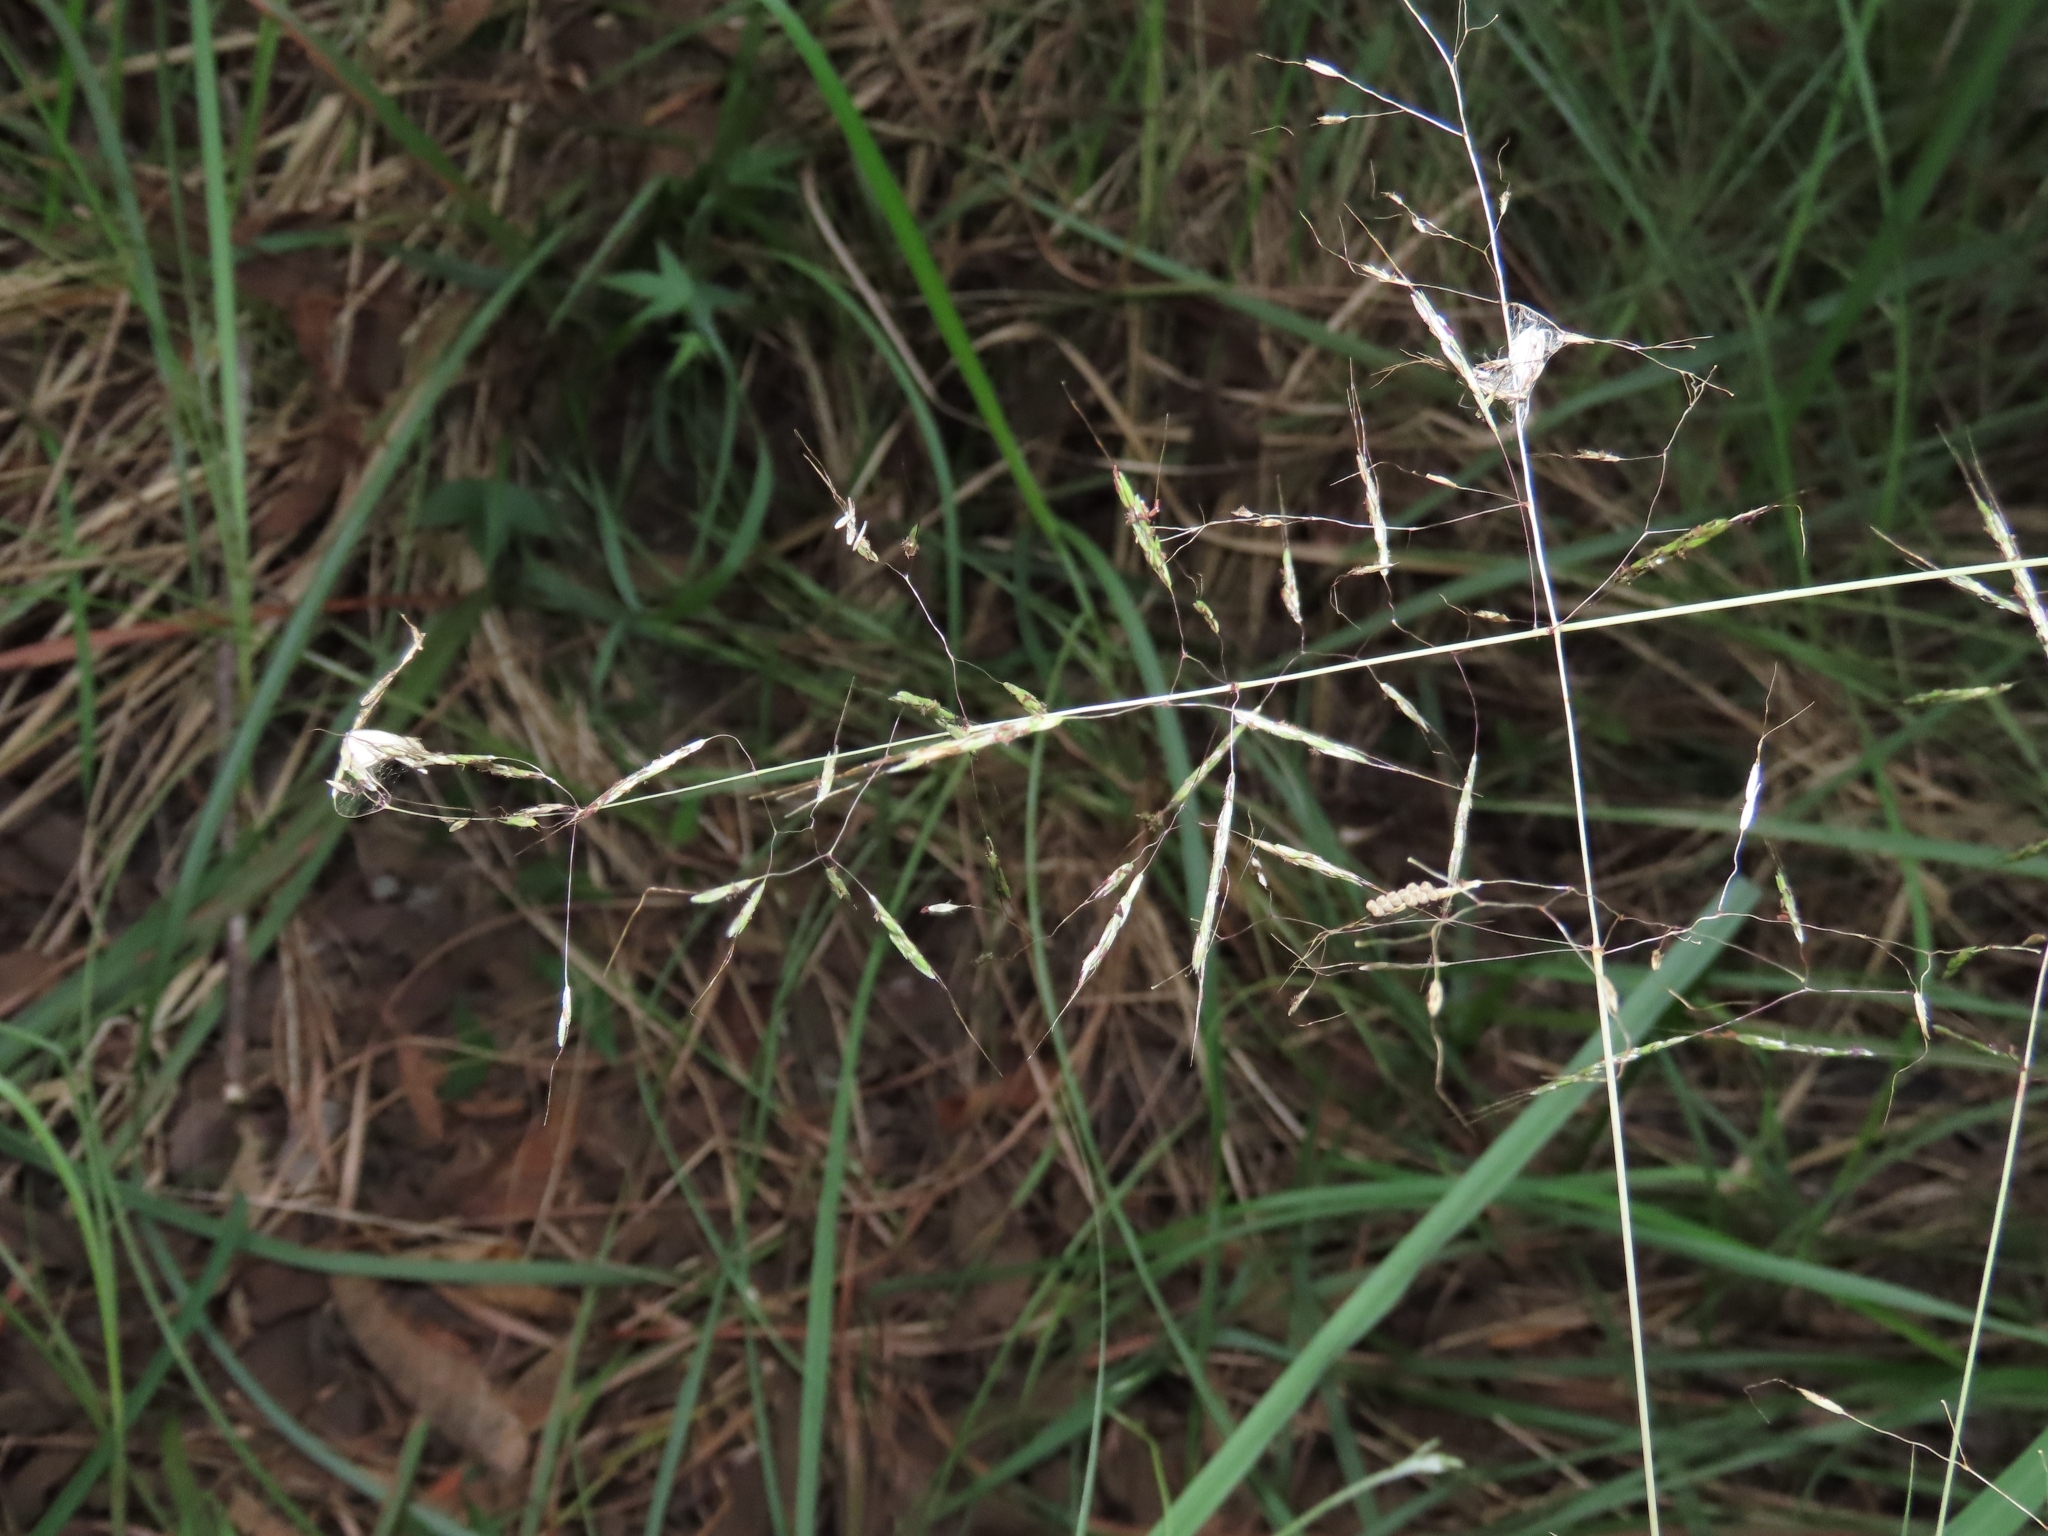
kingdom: Plantae
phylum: Tracheophyta
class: Liliopsida
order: Poales
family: Poaceae
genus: Capillipedium
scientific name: Capillipedium parviflorum
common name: Golden-beard
